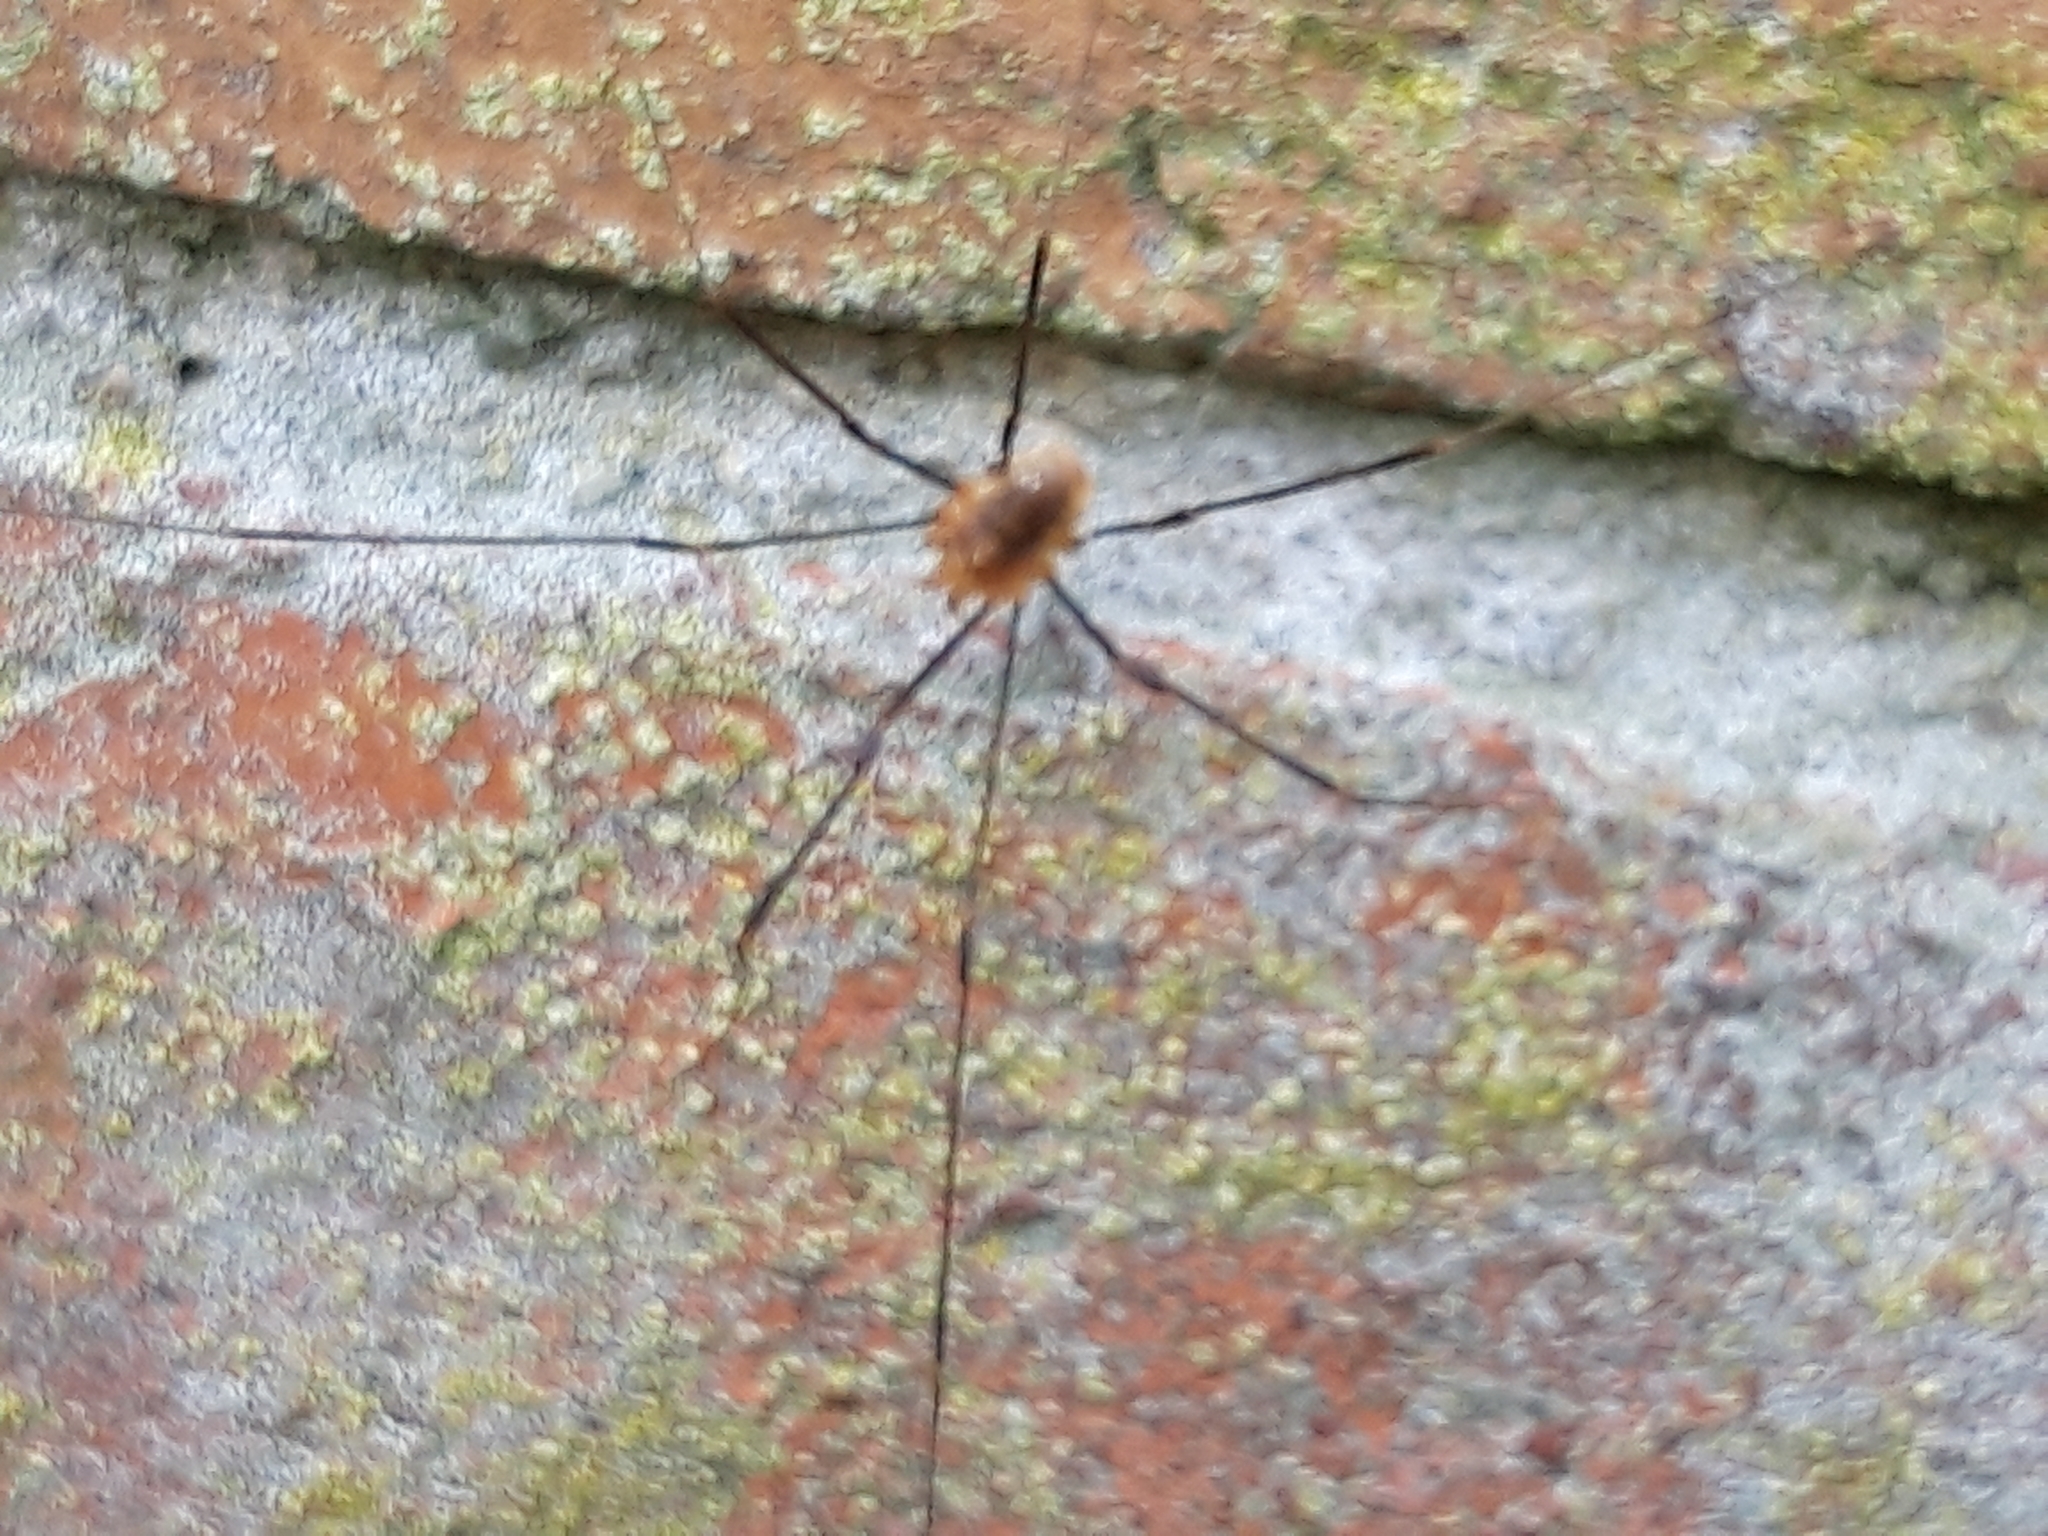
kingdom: Animalia
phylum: Arthropoda
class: Arachnida
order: Opiliones
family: Phalangiidae
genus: Opilio
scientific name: Opilio canestrinii
